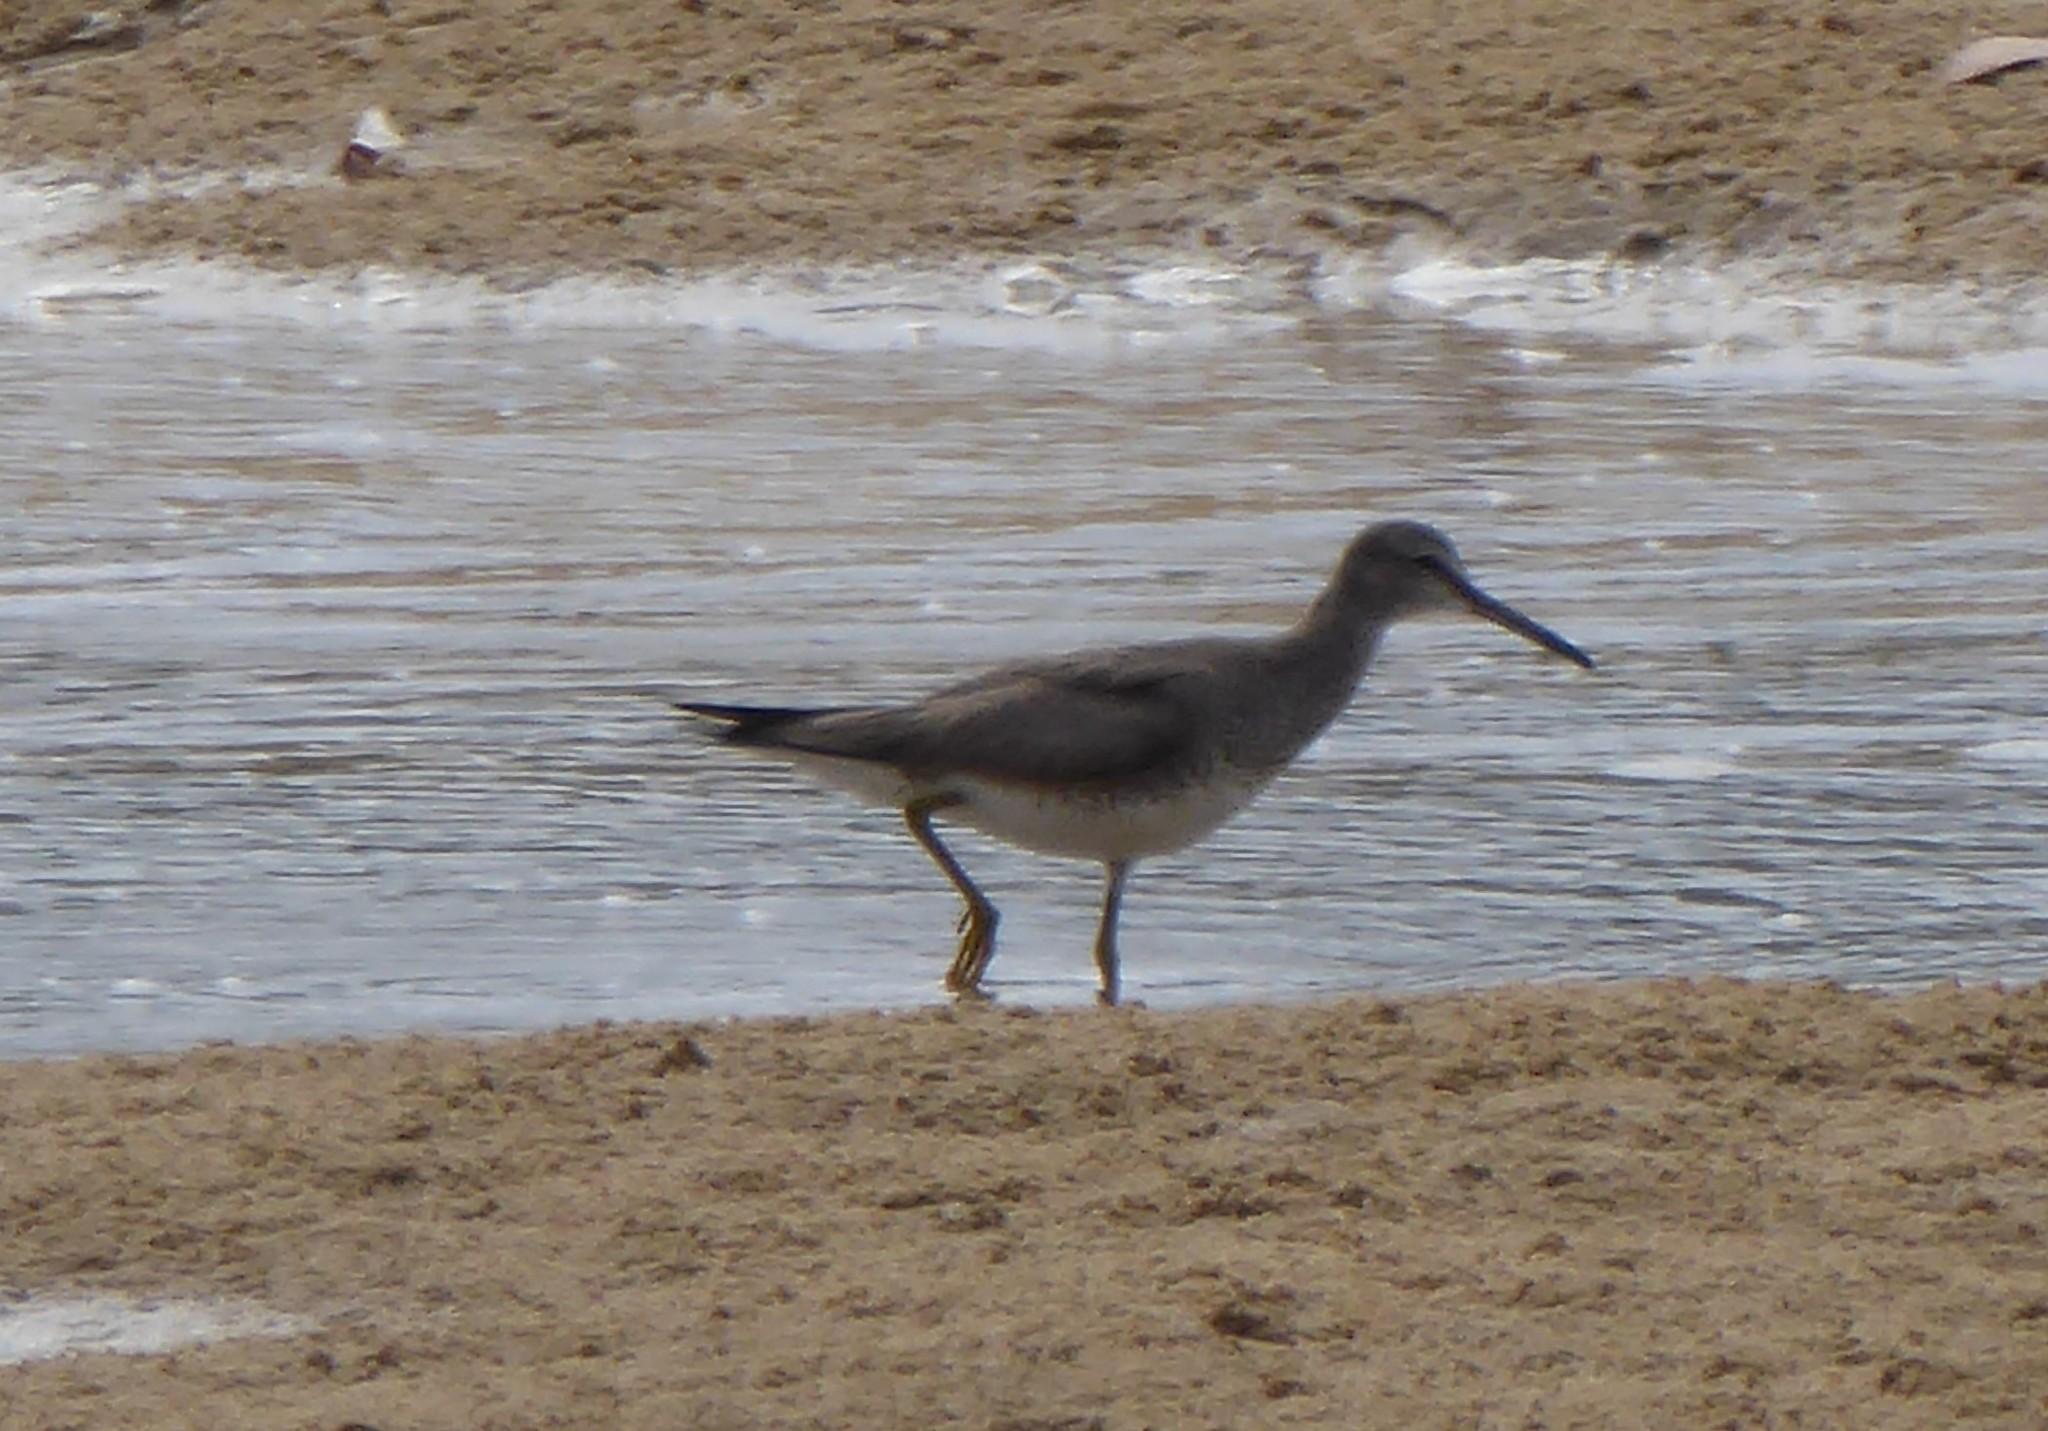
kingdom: Animalia
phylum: Chordata
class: Aves
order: Charadriiformes
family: Scolopacidae
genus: Tringa
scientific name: Tringa brevipes
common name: Grey-tailed tattler
